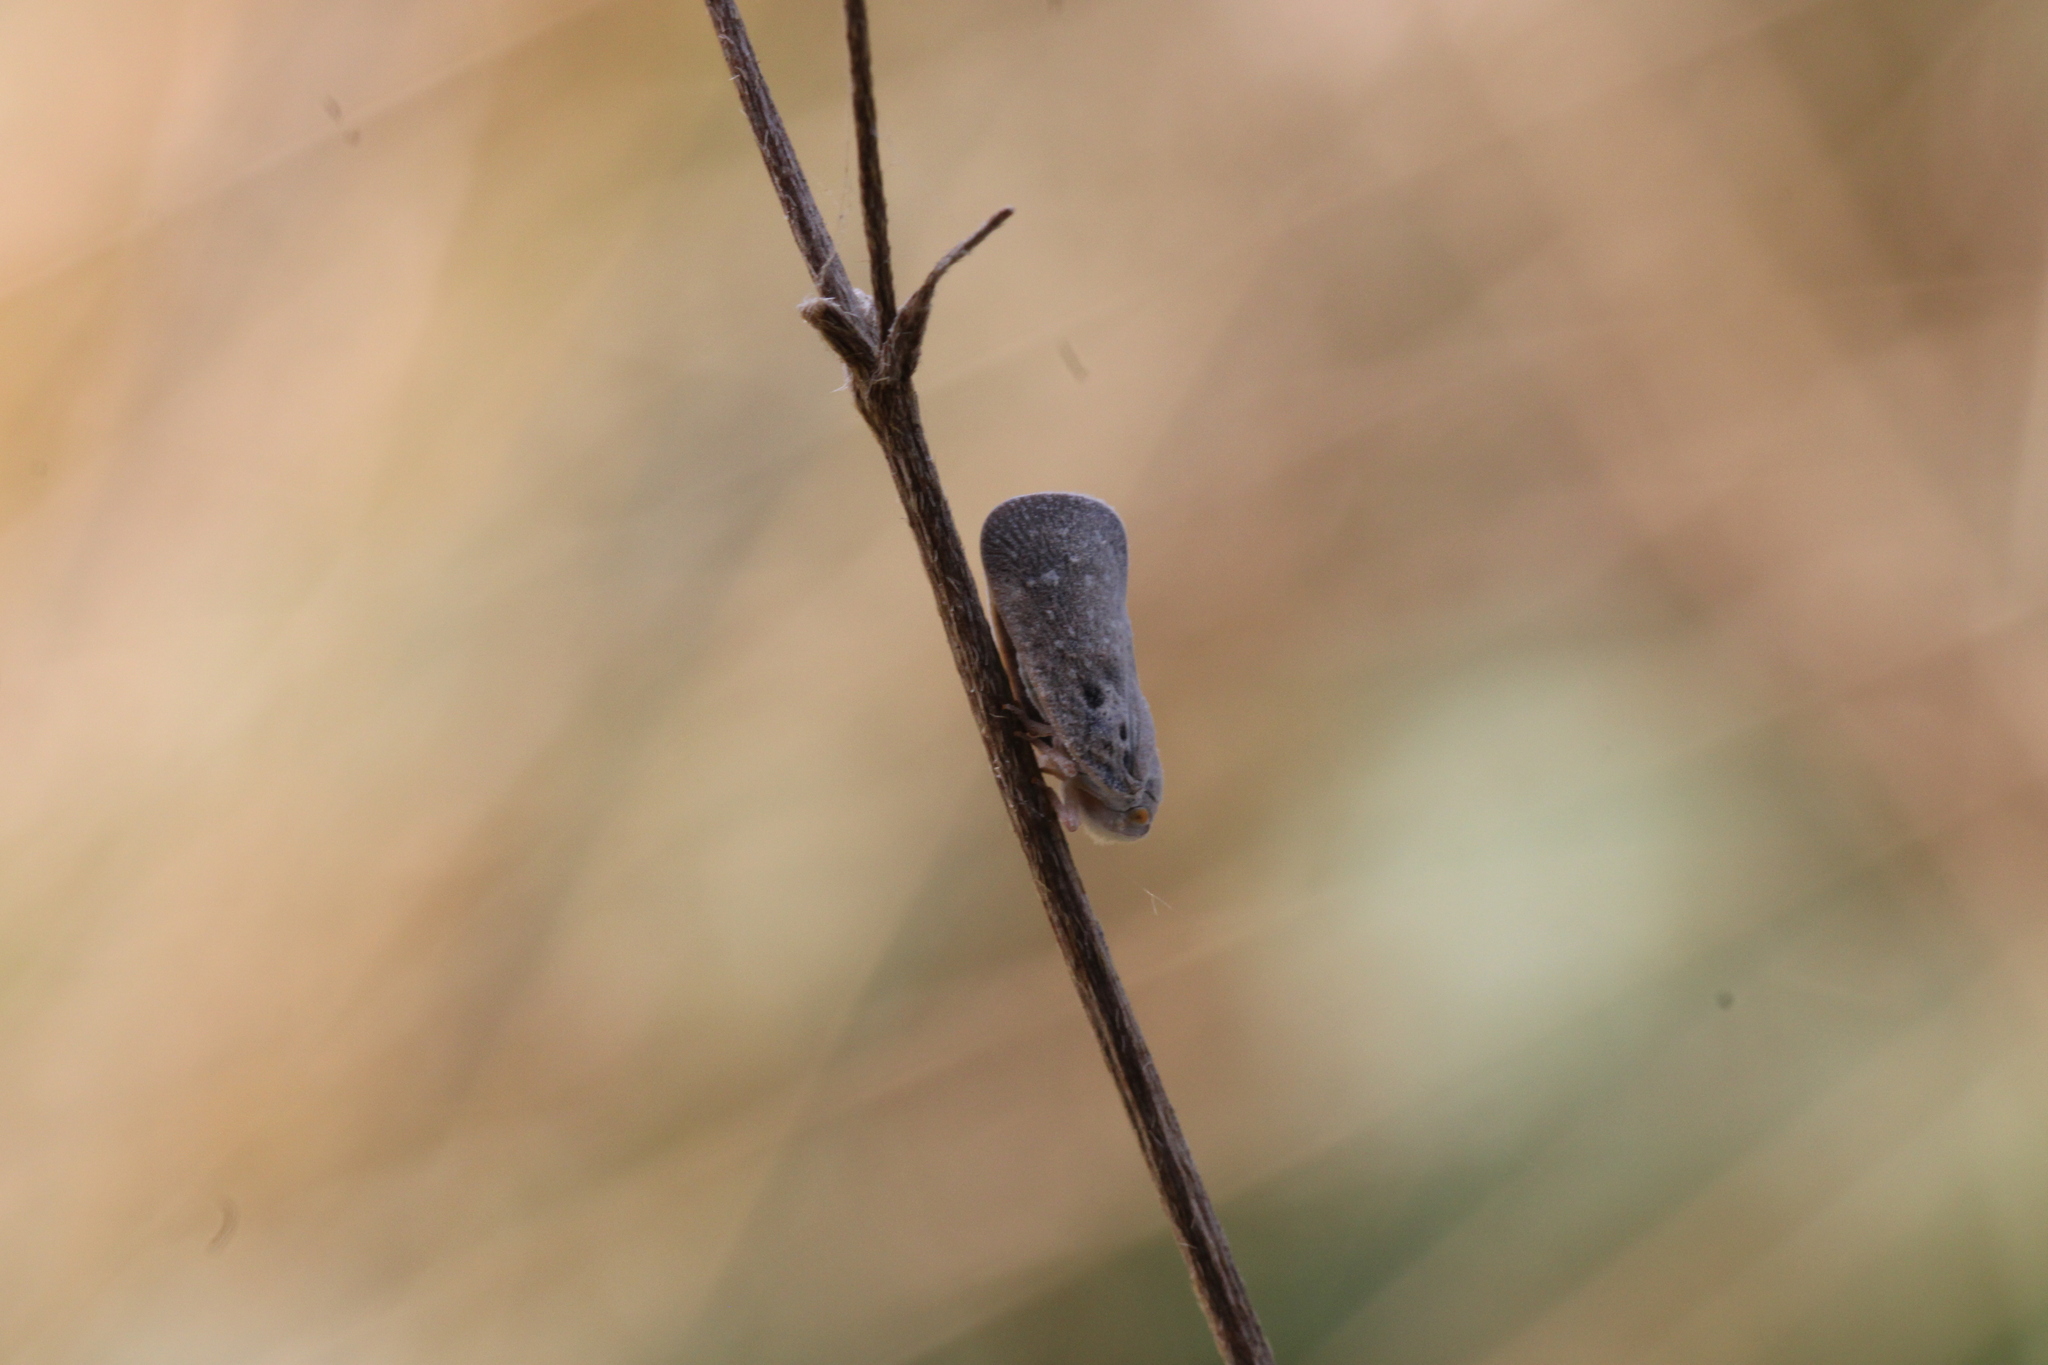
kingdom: Animalia
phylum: Arthropoda
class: Insecta
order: Hemiptera
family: Flatidae
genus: Metcalfa
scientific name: Metcalfa pruinosa
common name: Citrus flatid planthopper
